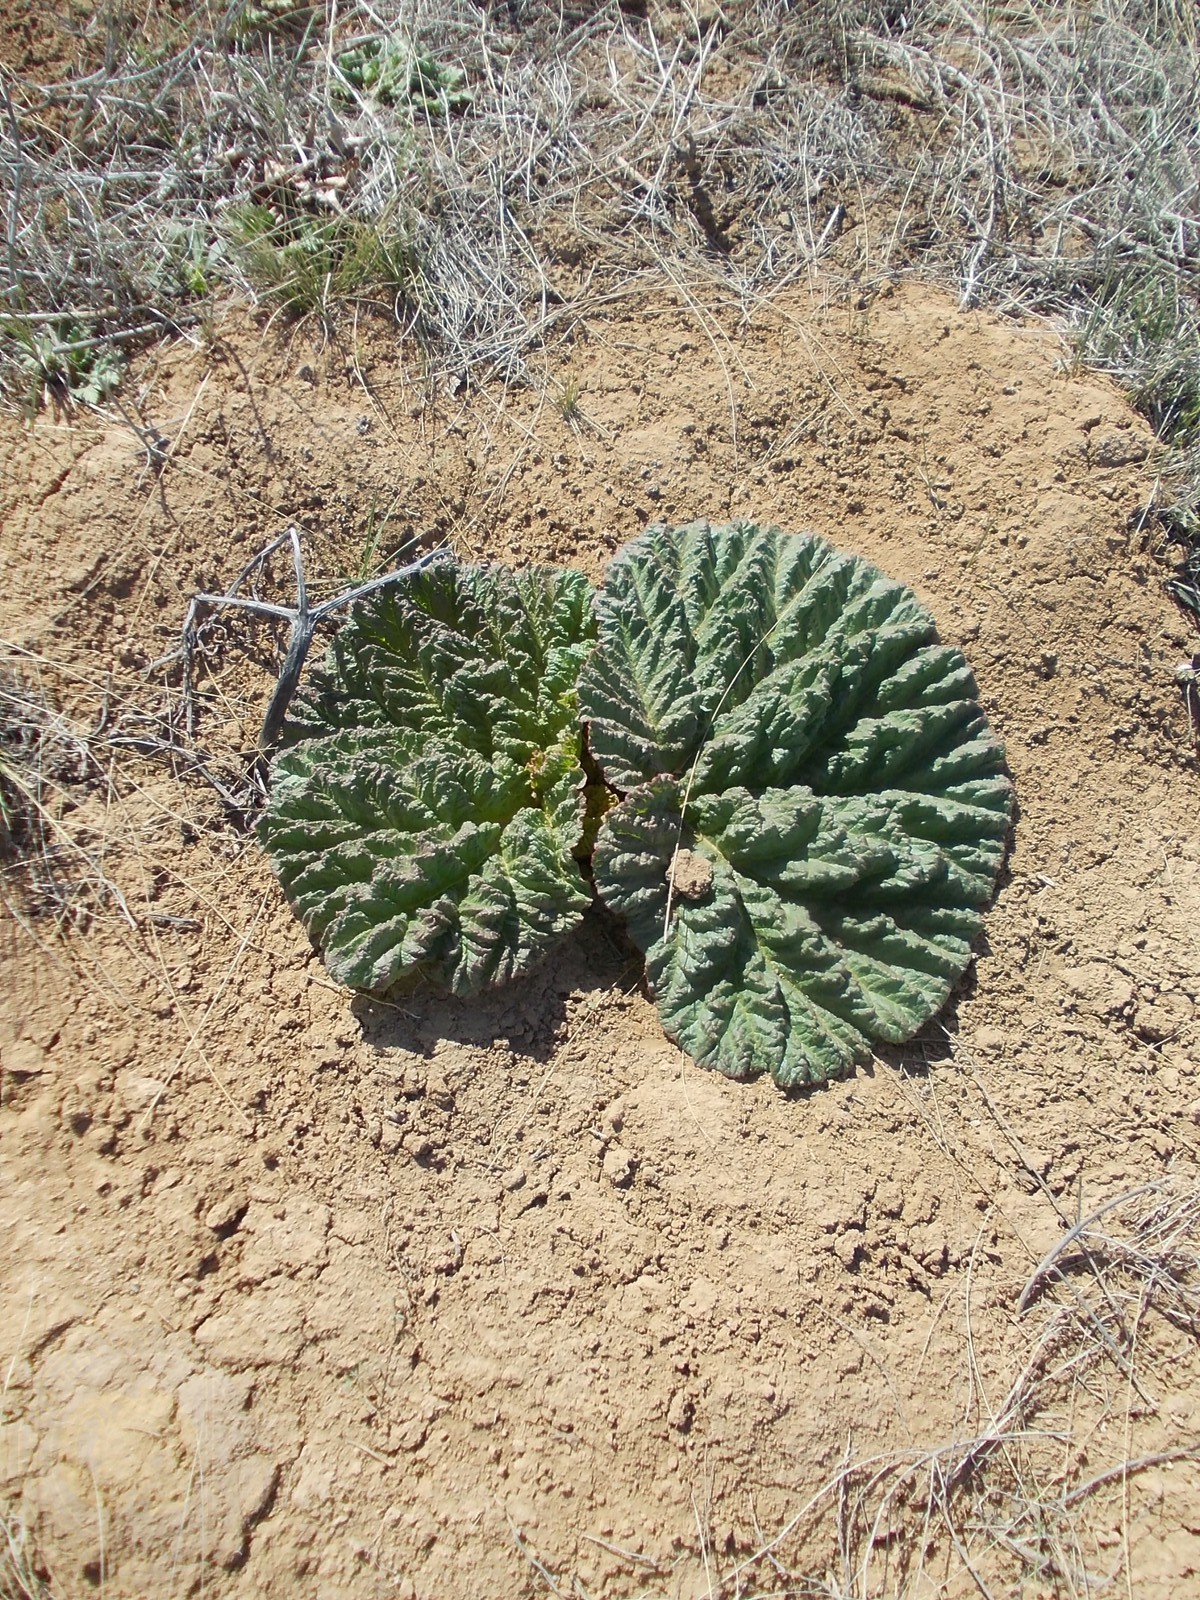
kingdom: Plantae
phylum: Tracheophyta
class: Magnoliopsida
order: Caryophyllales
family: Polygonaceae
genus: Rheum
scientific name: Rheum tataricum
